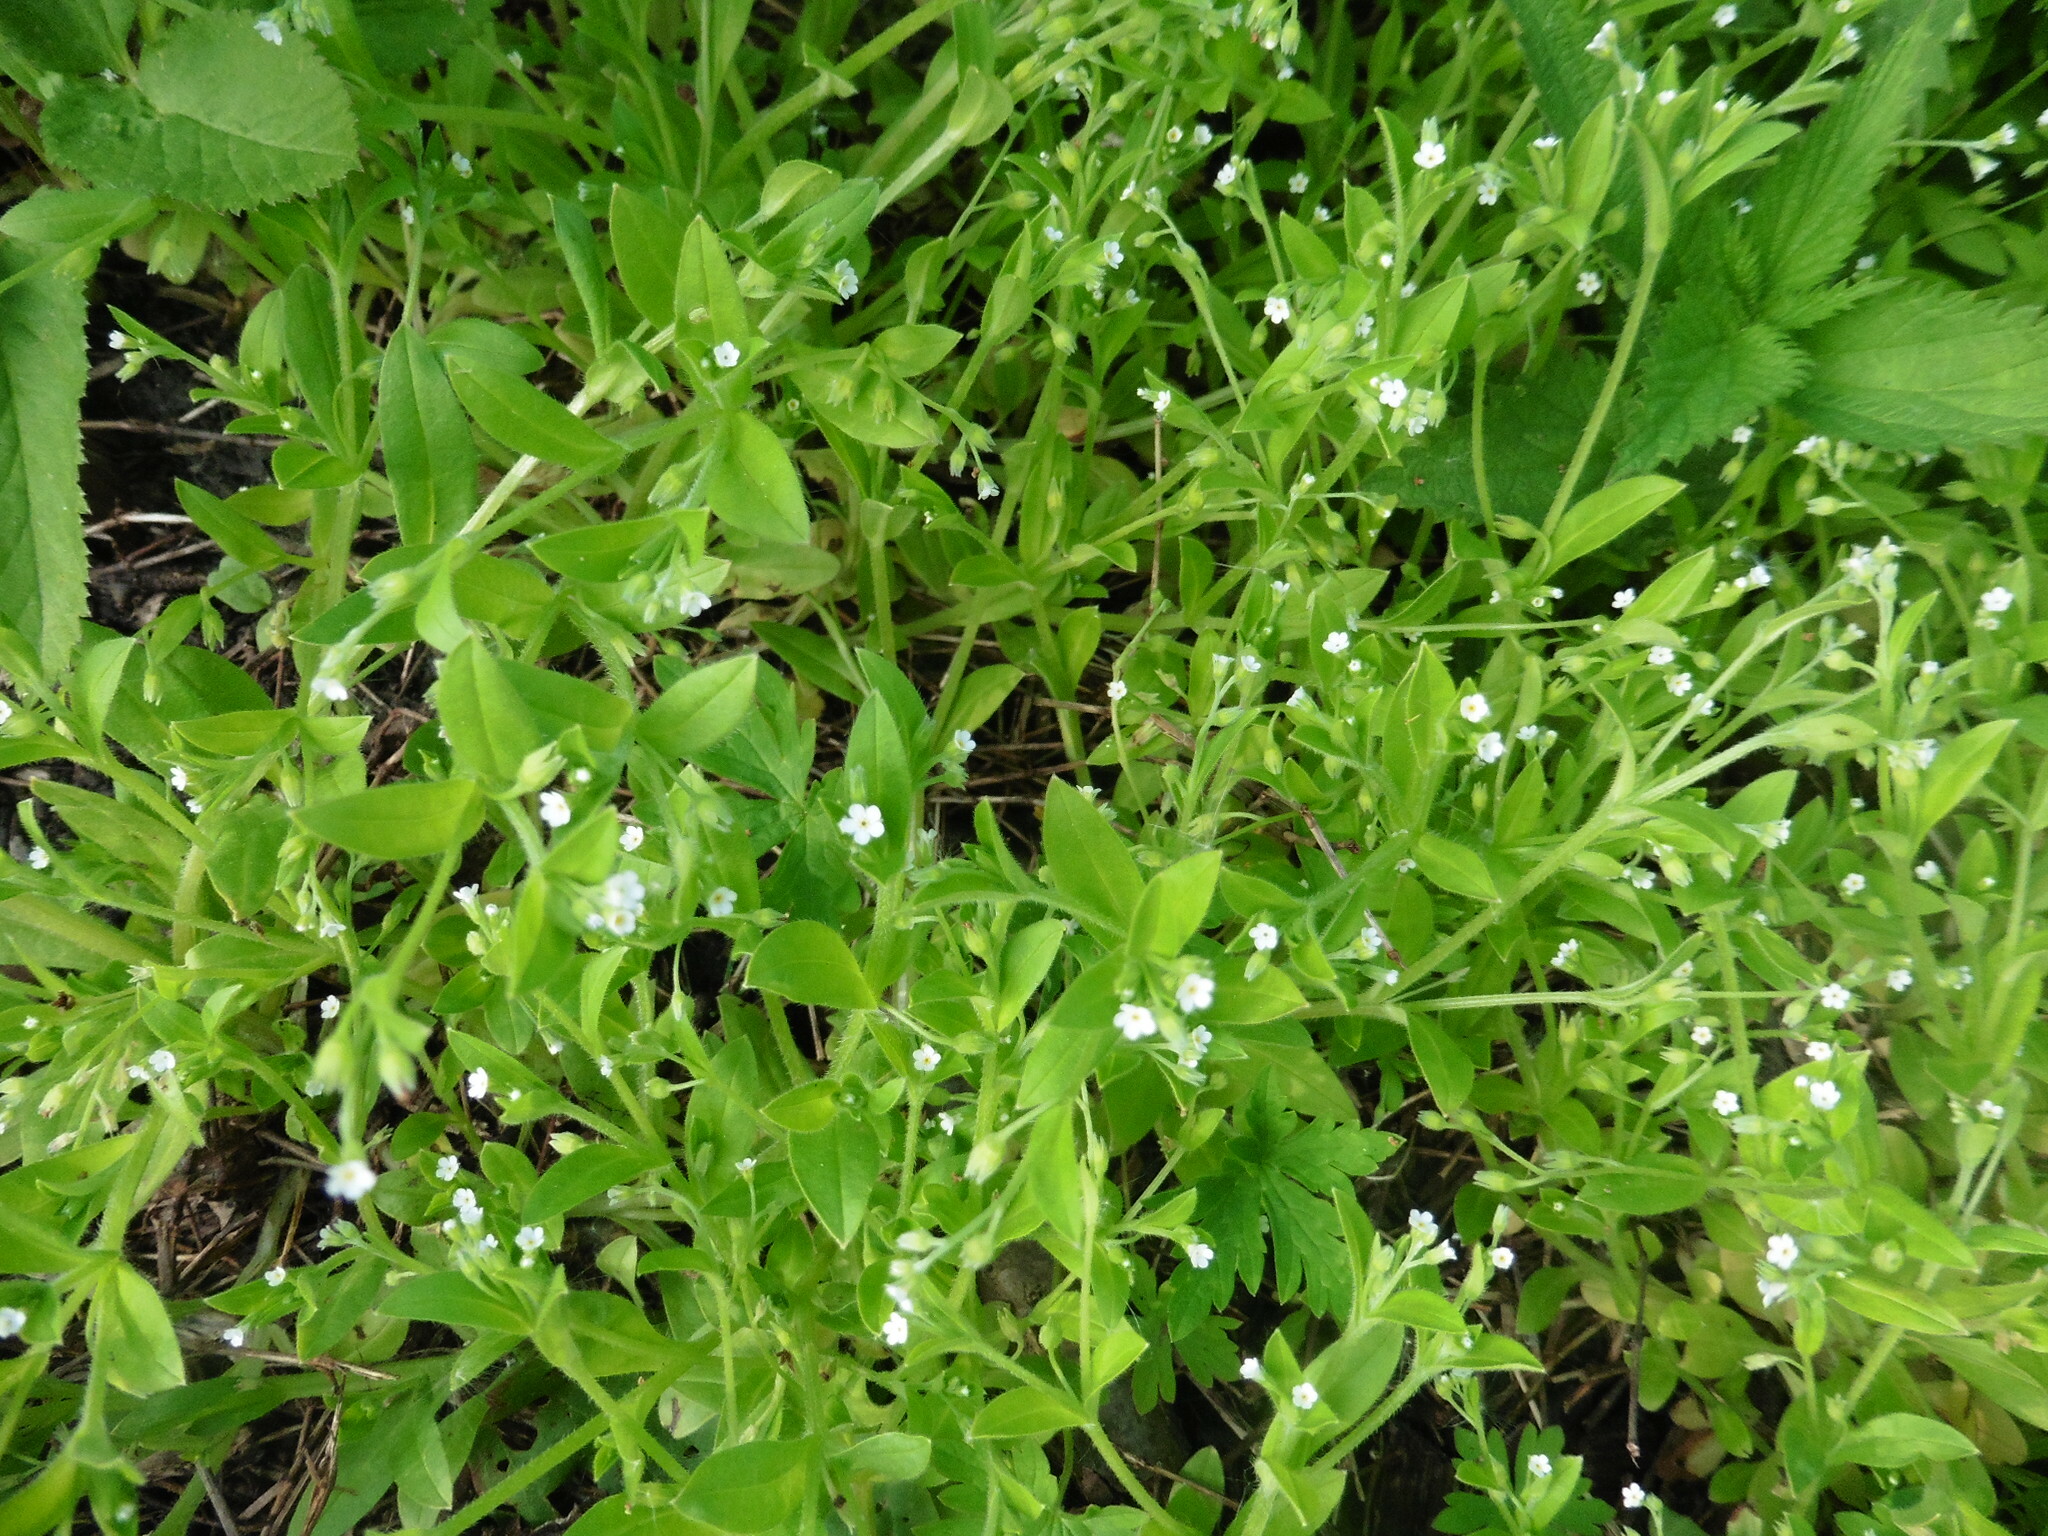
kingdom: Plantae
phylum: Tracheophyta
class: Magnoliopsida
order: Boraginales
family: Boraginaceae
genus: Myosotis
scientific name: Myosotis sparsiflora
